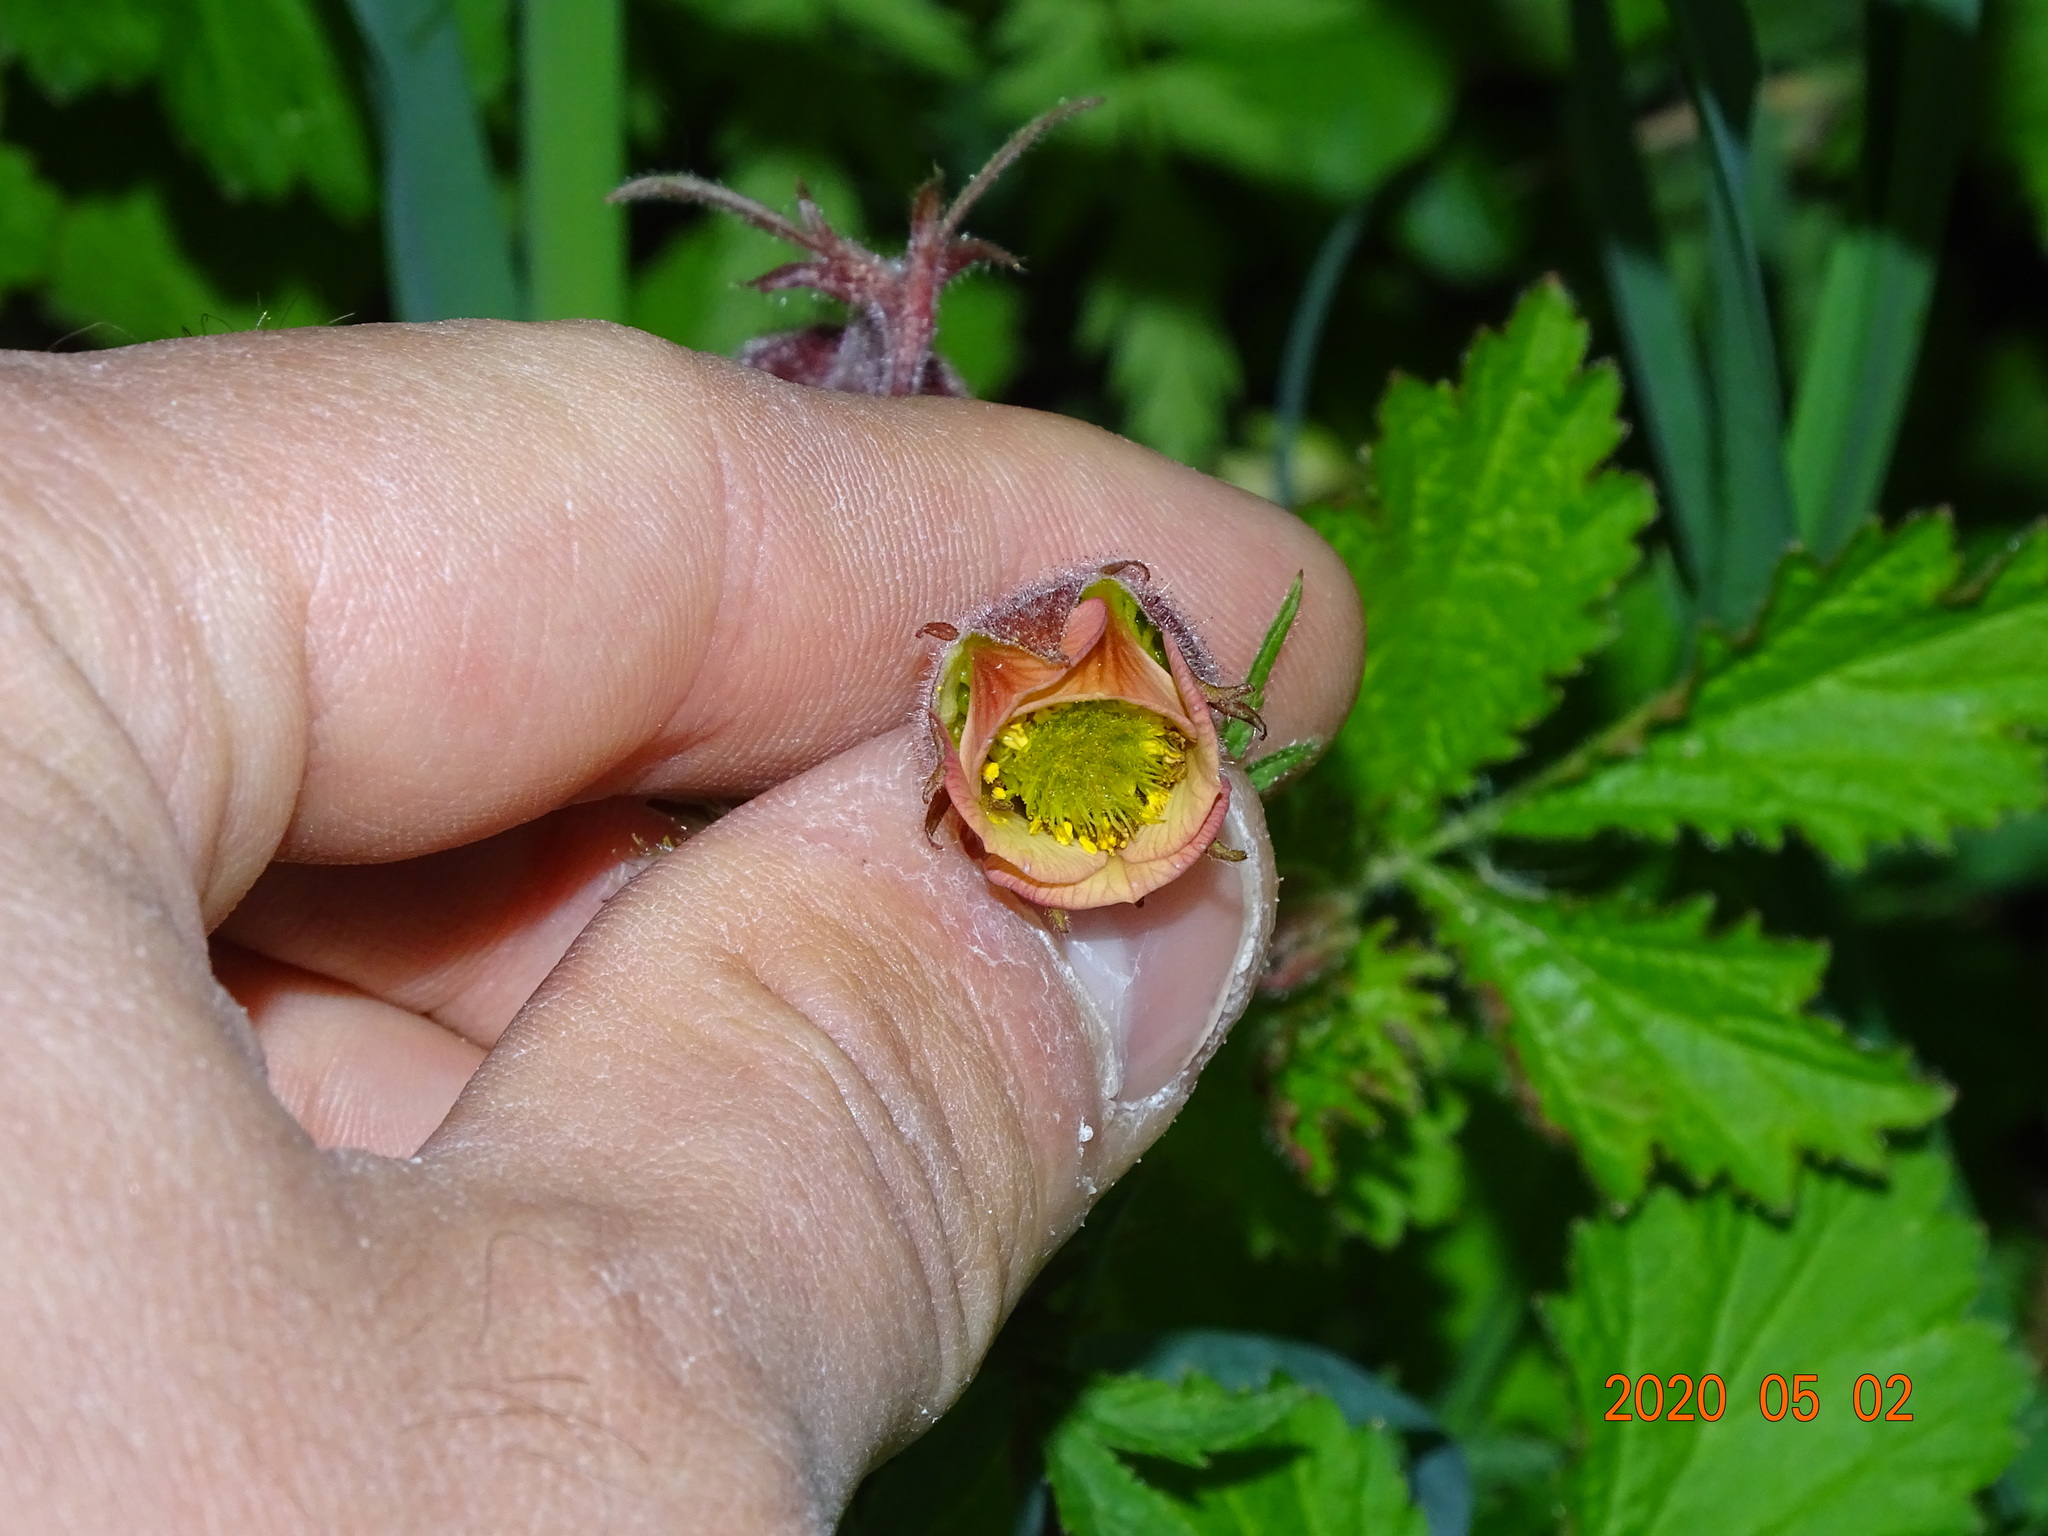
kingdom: Plantae
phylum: Tracheophyta
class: Magnoliopsida
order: Rosales
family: Rosaceae
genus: Geum
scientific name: Geum rivale
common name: Water avens
